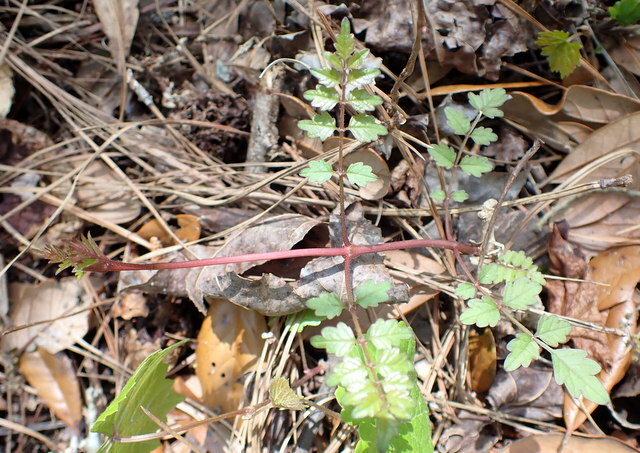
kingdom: Plantae
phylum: Tracheophyta
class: Magnoliopsida
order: Vitales
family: Vitaceae
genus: Nekemias
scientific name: Nekemias arborea
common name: Peppervine
